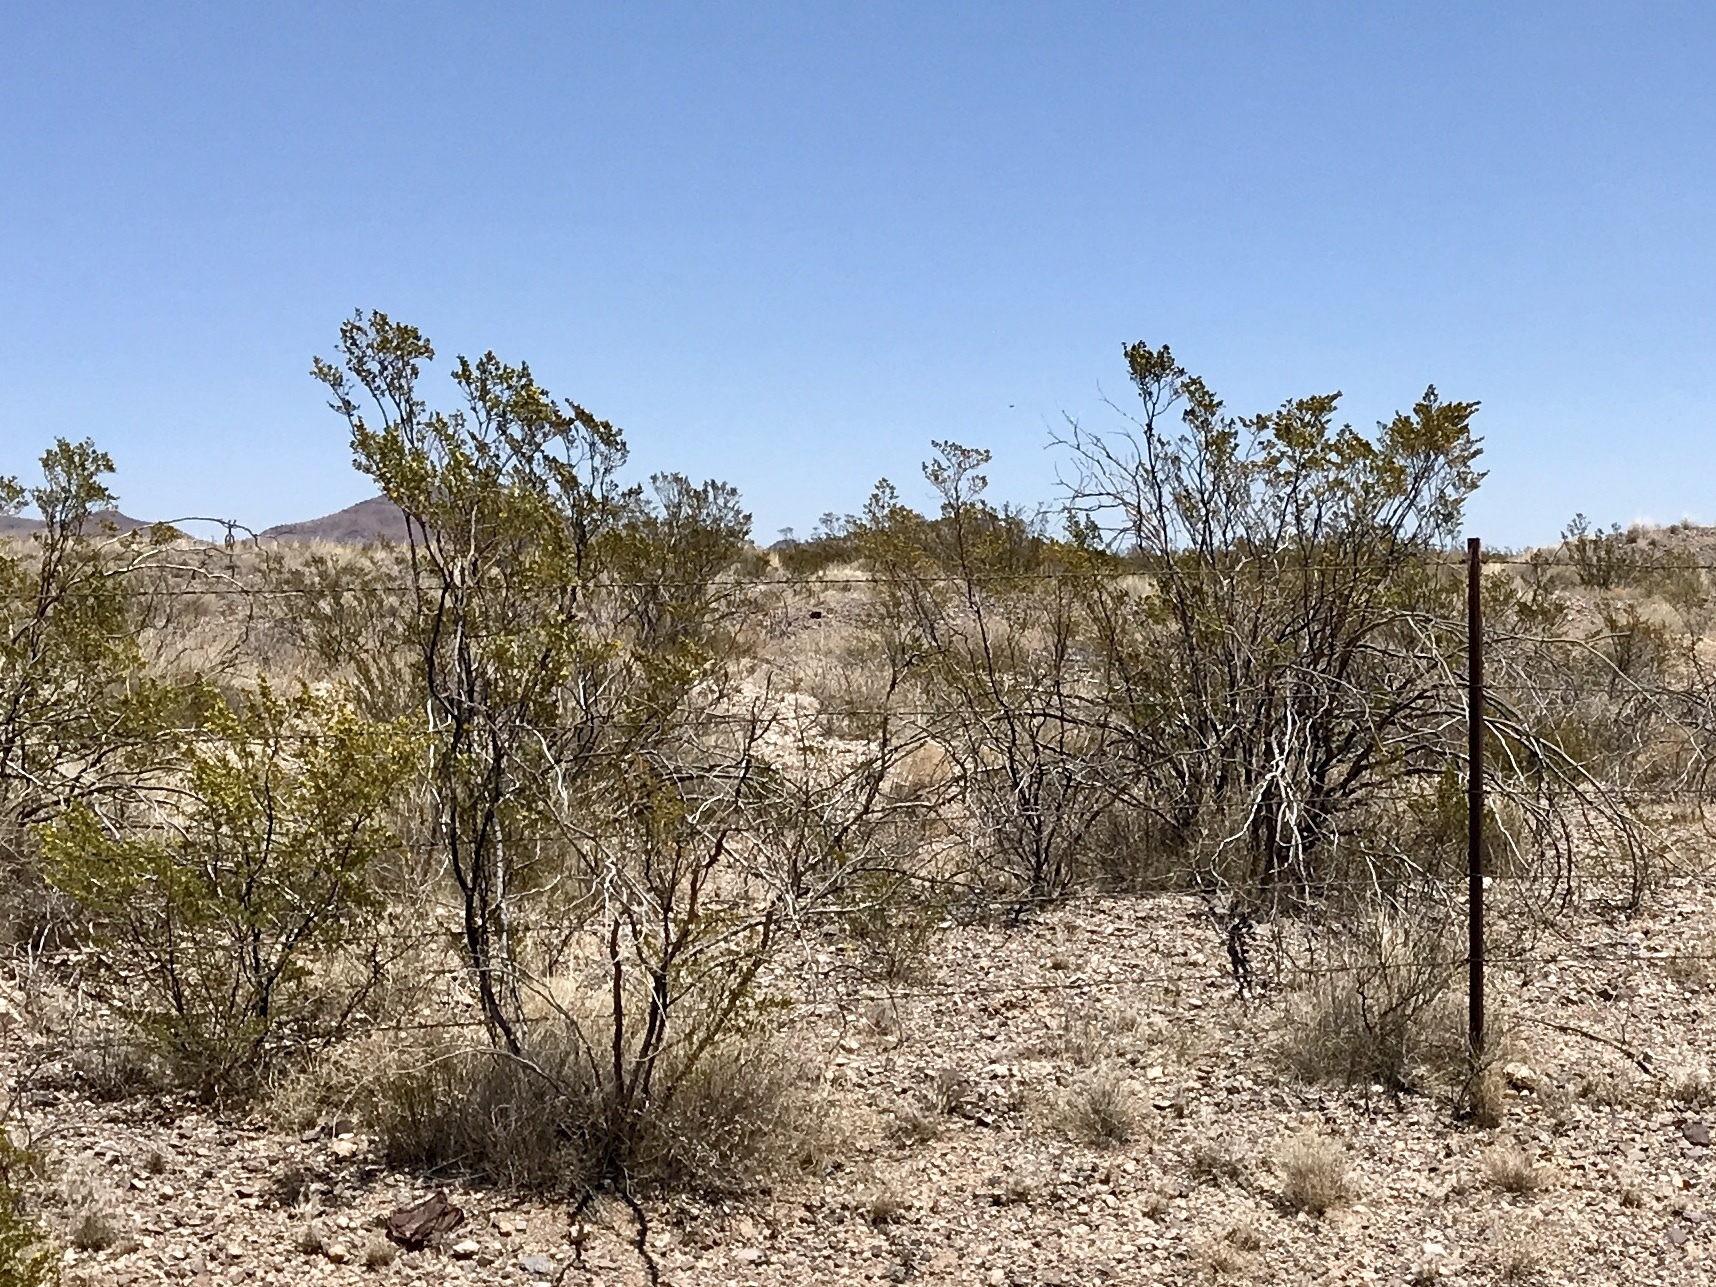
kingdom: Plantae
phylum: Tracheophyta
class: Magnoliopsida
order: Zygophyllales
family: Zygophyllaceae
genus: Larrea
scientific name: Larrea tridentata
